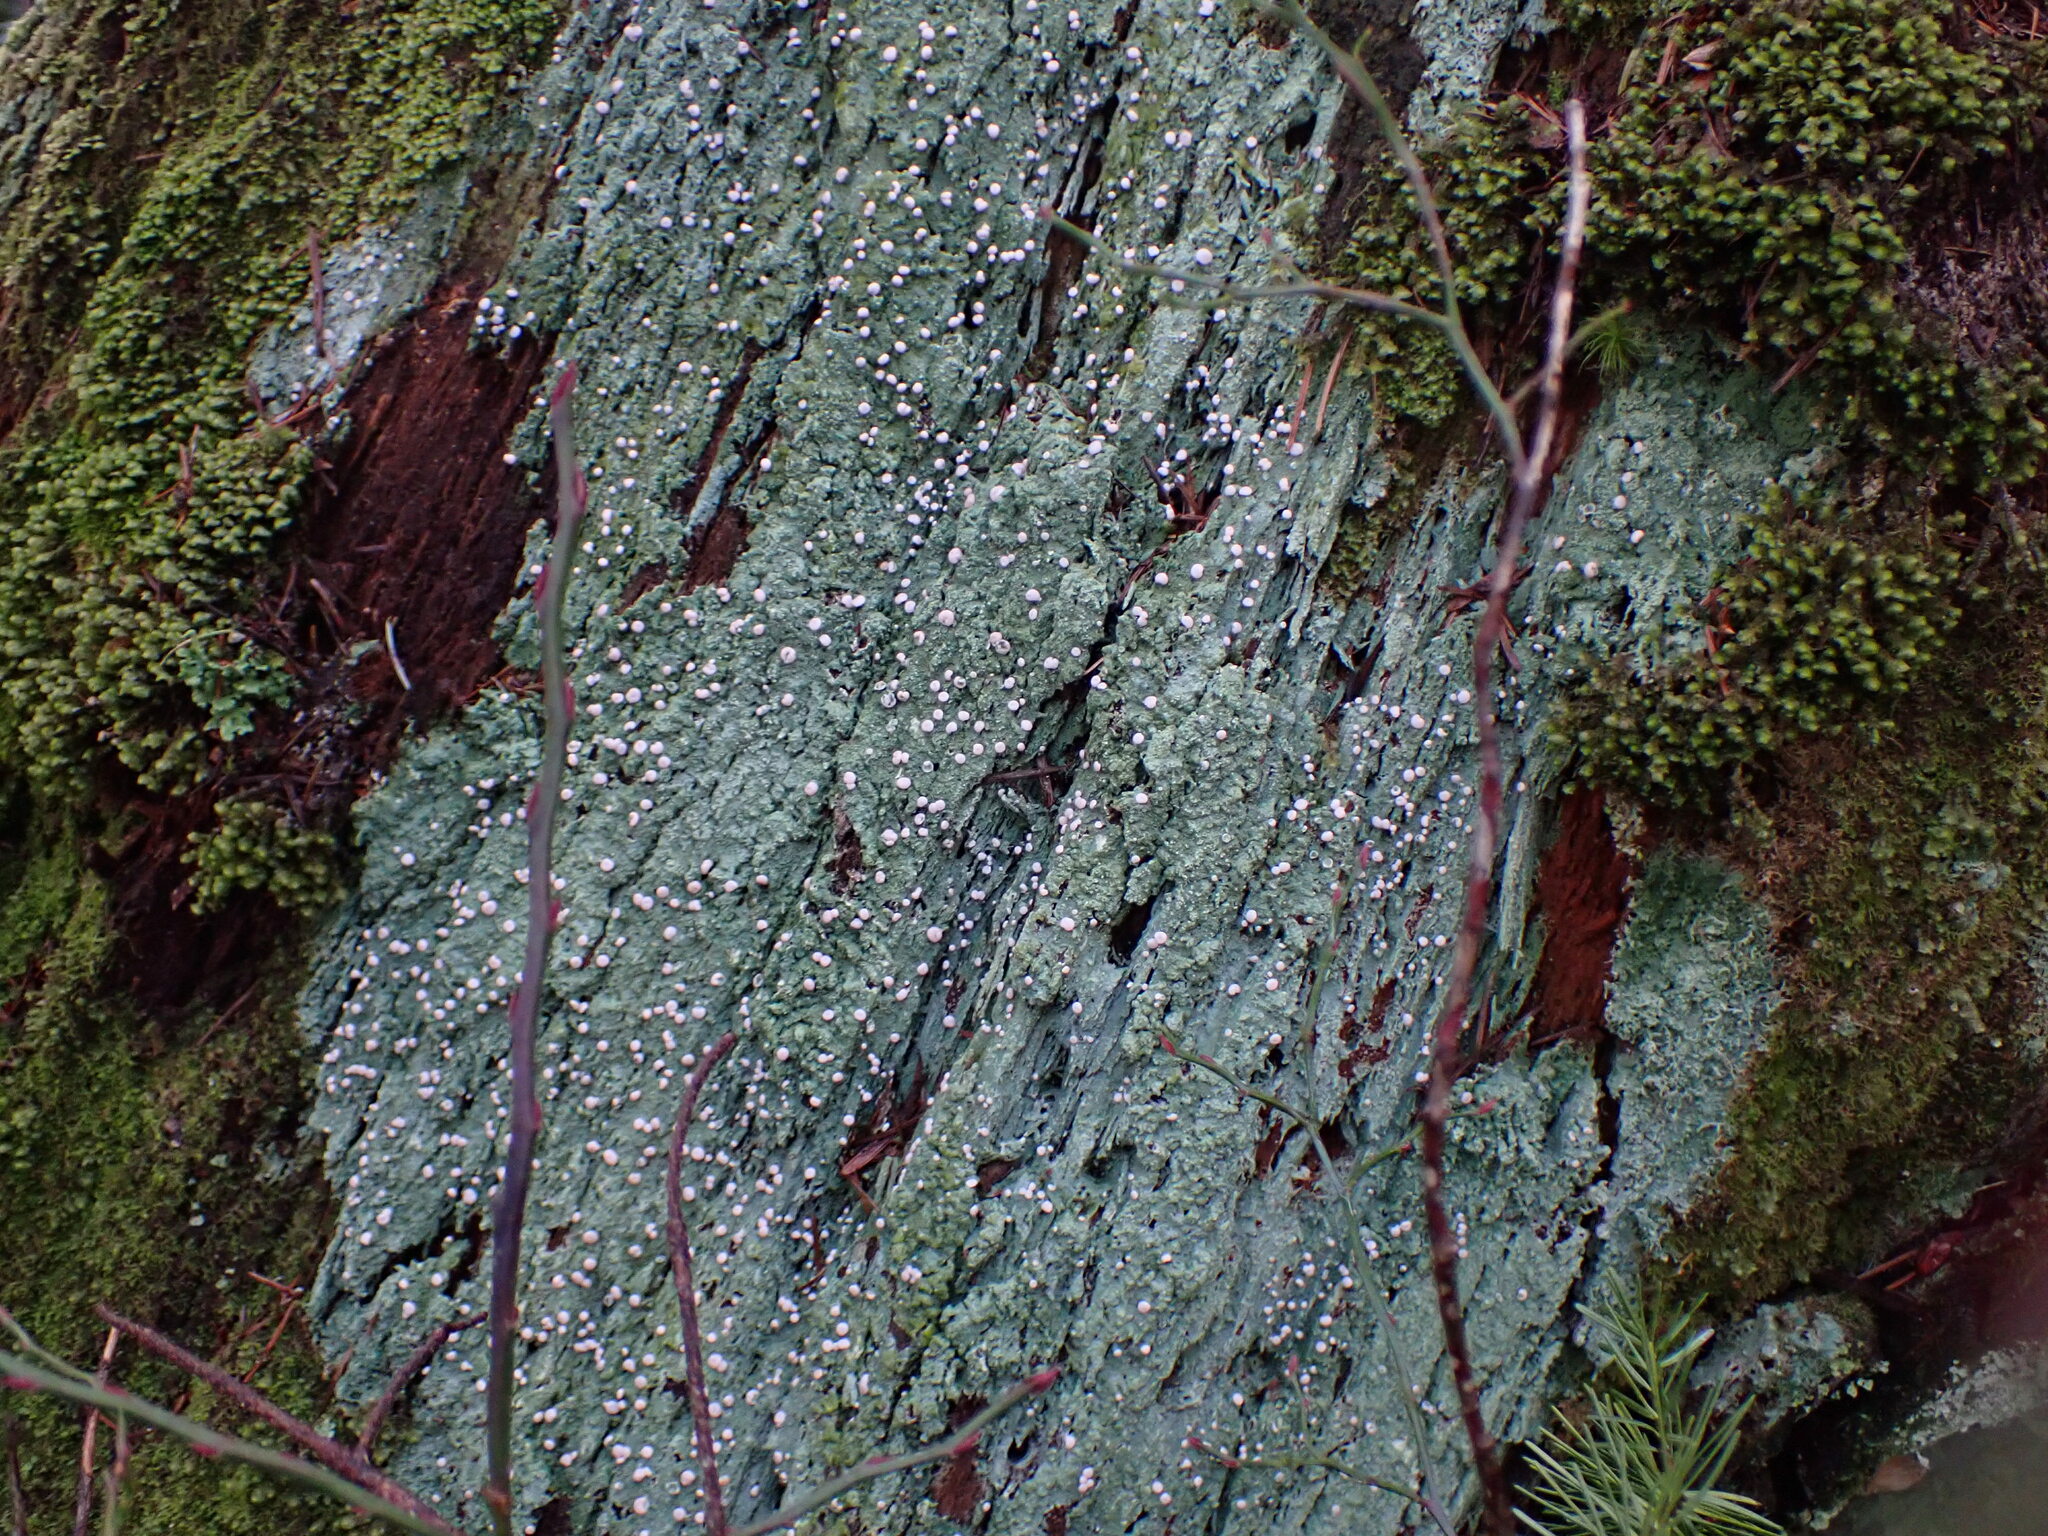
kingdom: Fungi
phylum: Ascomycota
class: Lecanoromycetes
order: Pertusariales
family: Icmadophilaceae
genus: Icmadophila
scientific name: Icmadophila ericetorum
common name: Candy lichen
